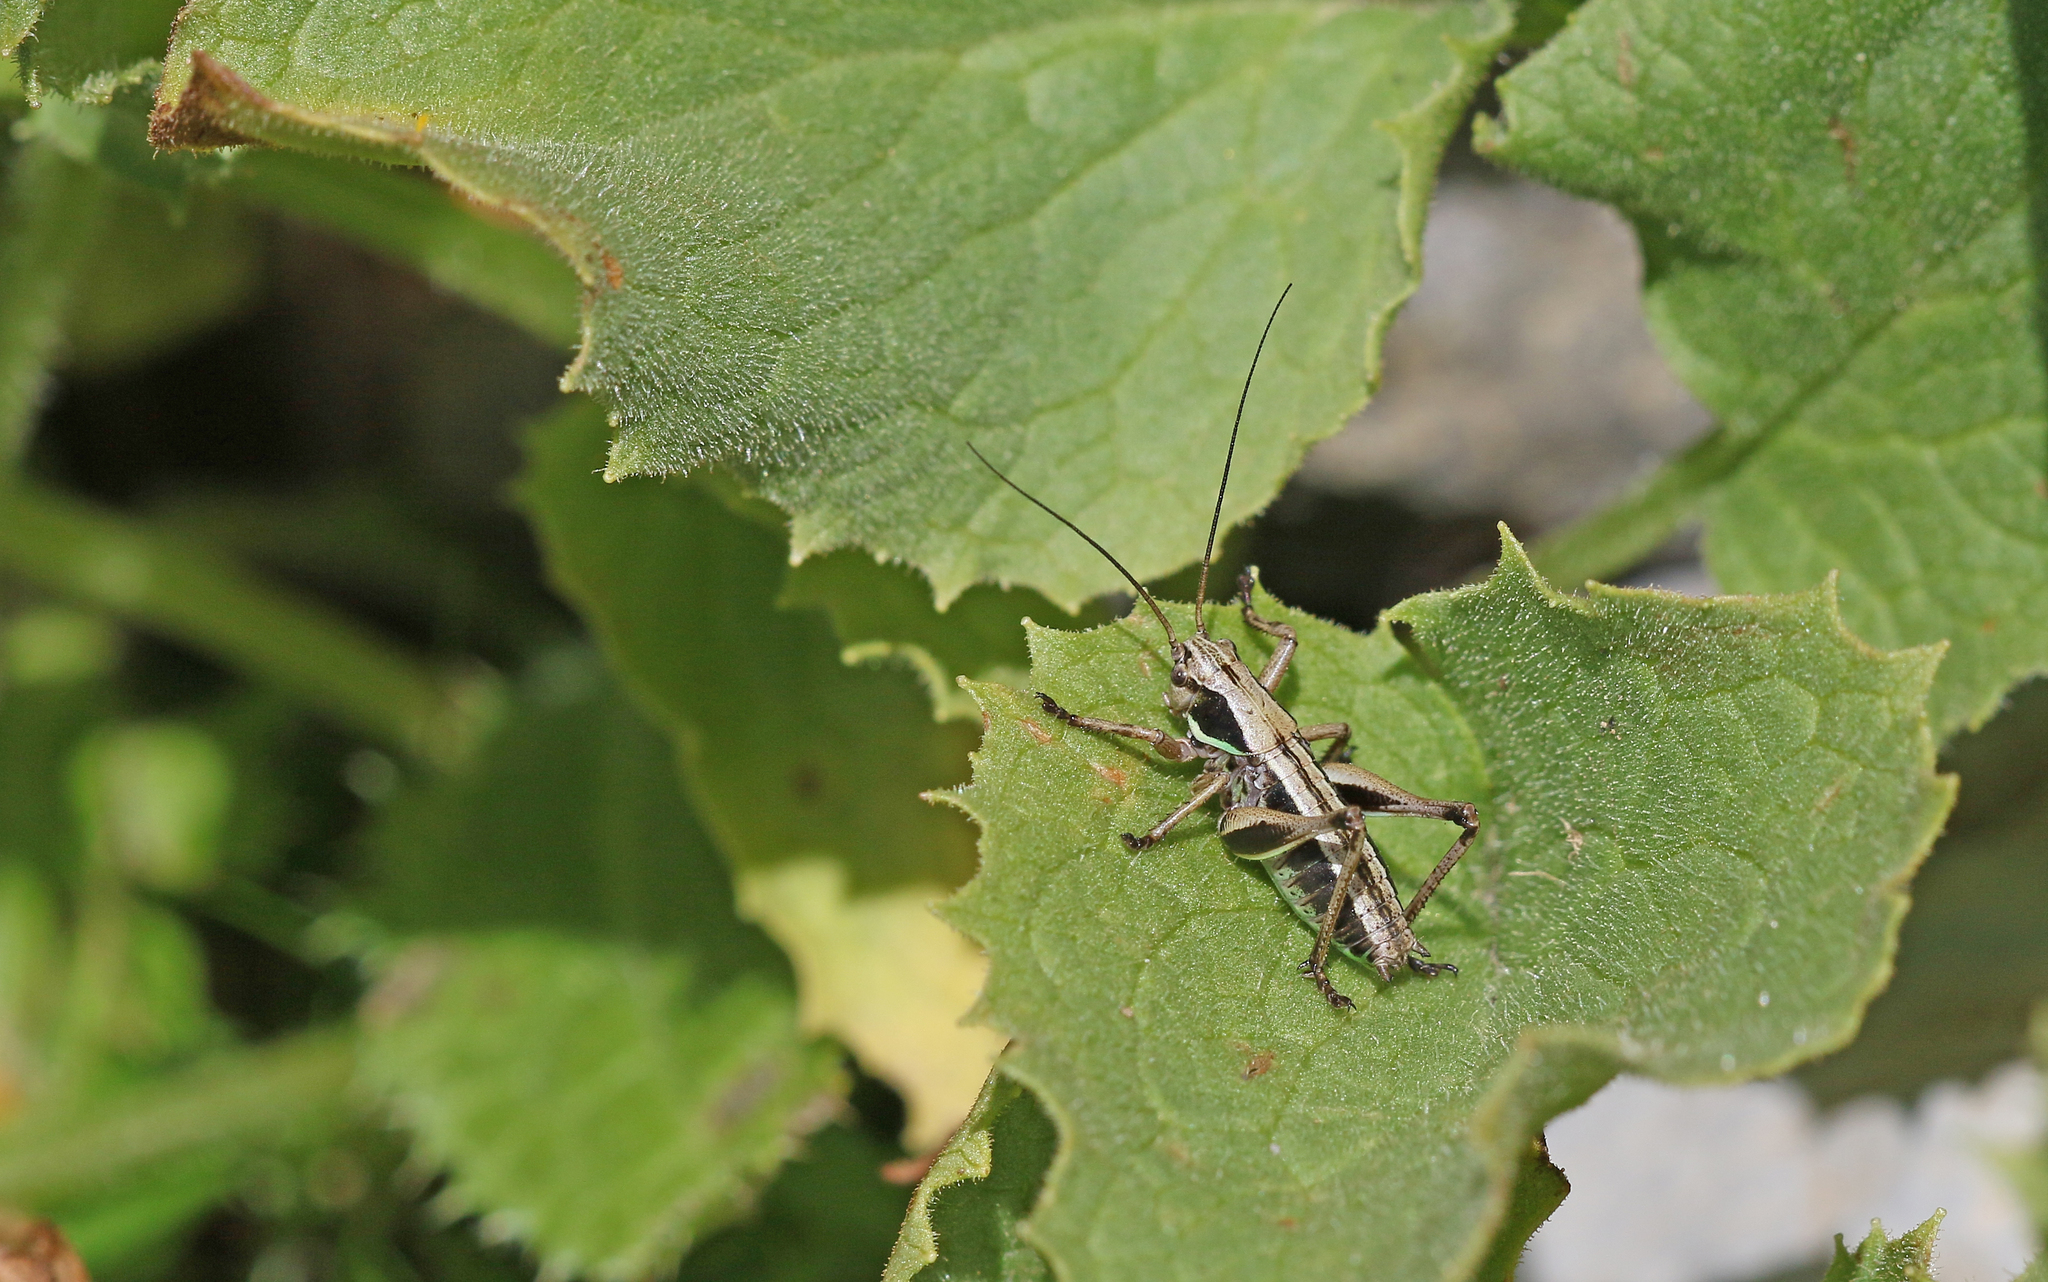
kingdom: Animalia
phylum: Arthropoda
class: Insecta
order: Orthoptera
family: Tettigoniidae
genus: Anonconotus
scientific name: Anonconotus occidentalis
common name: Western alpine bush-cricket
